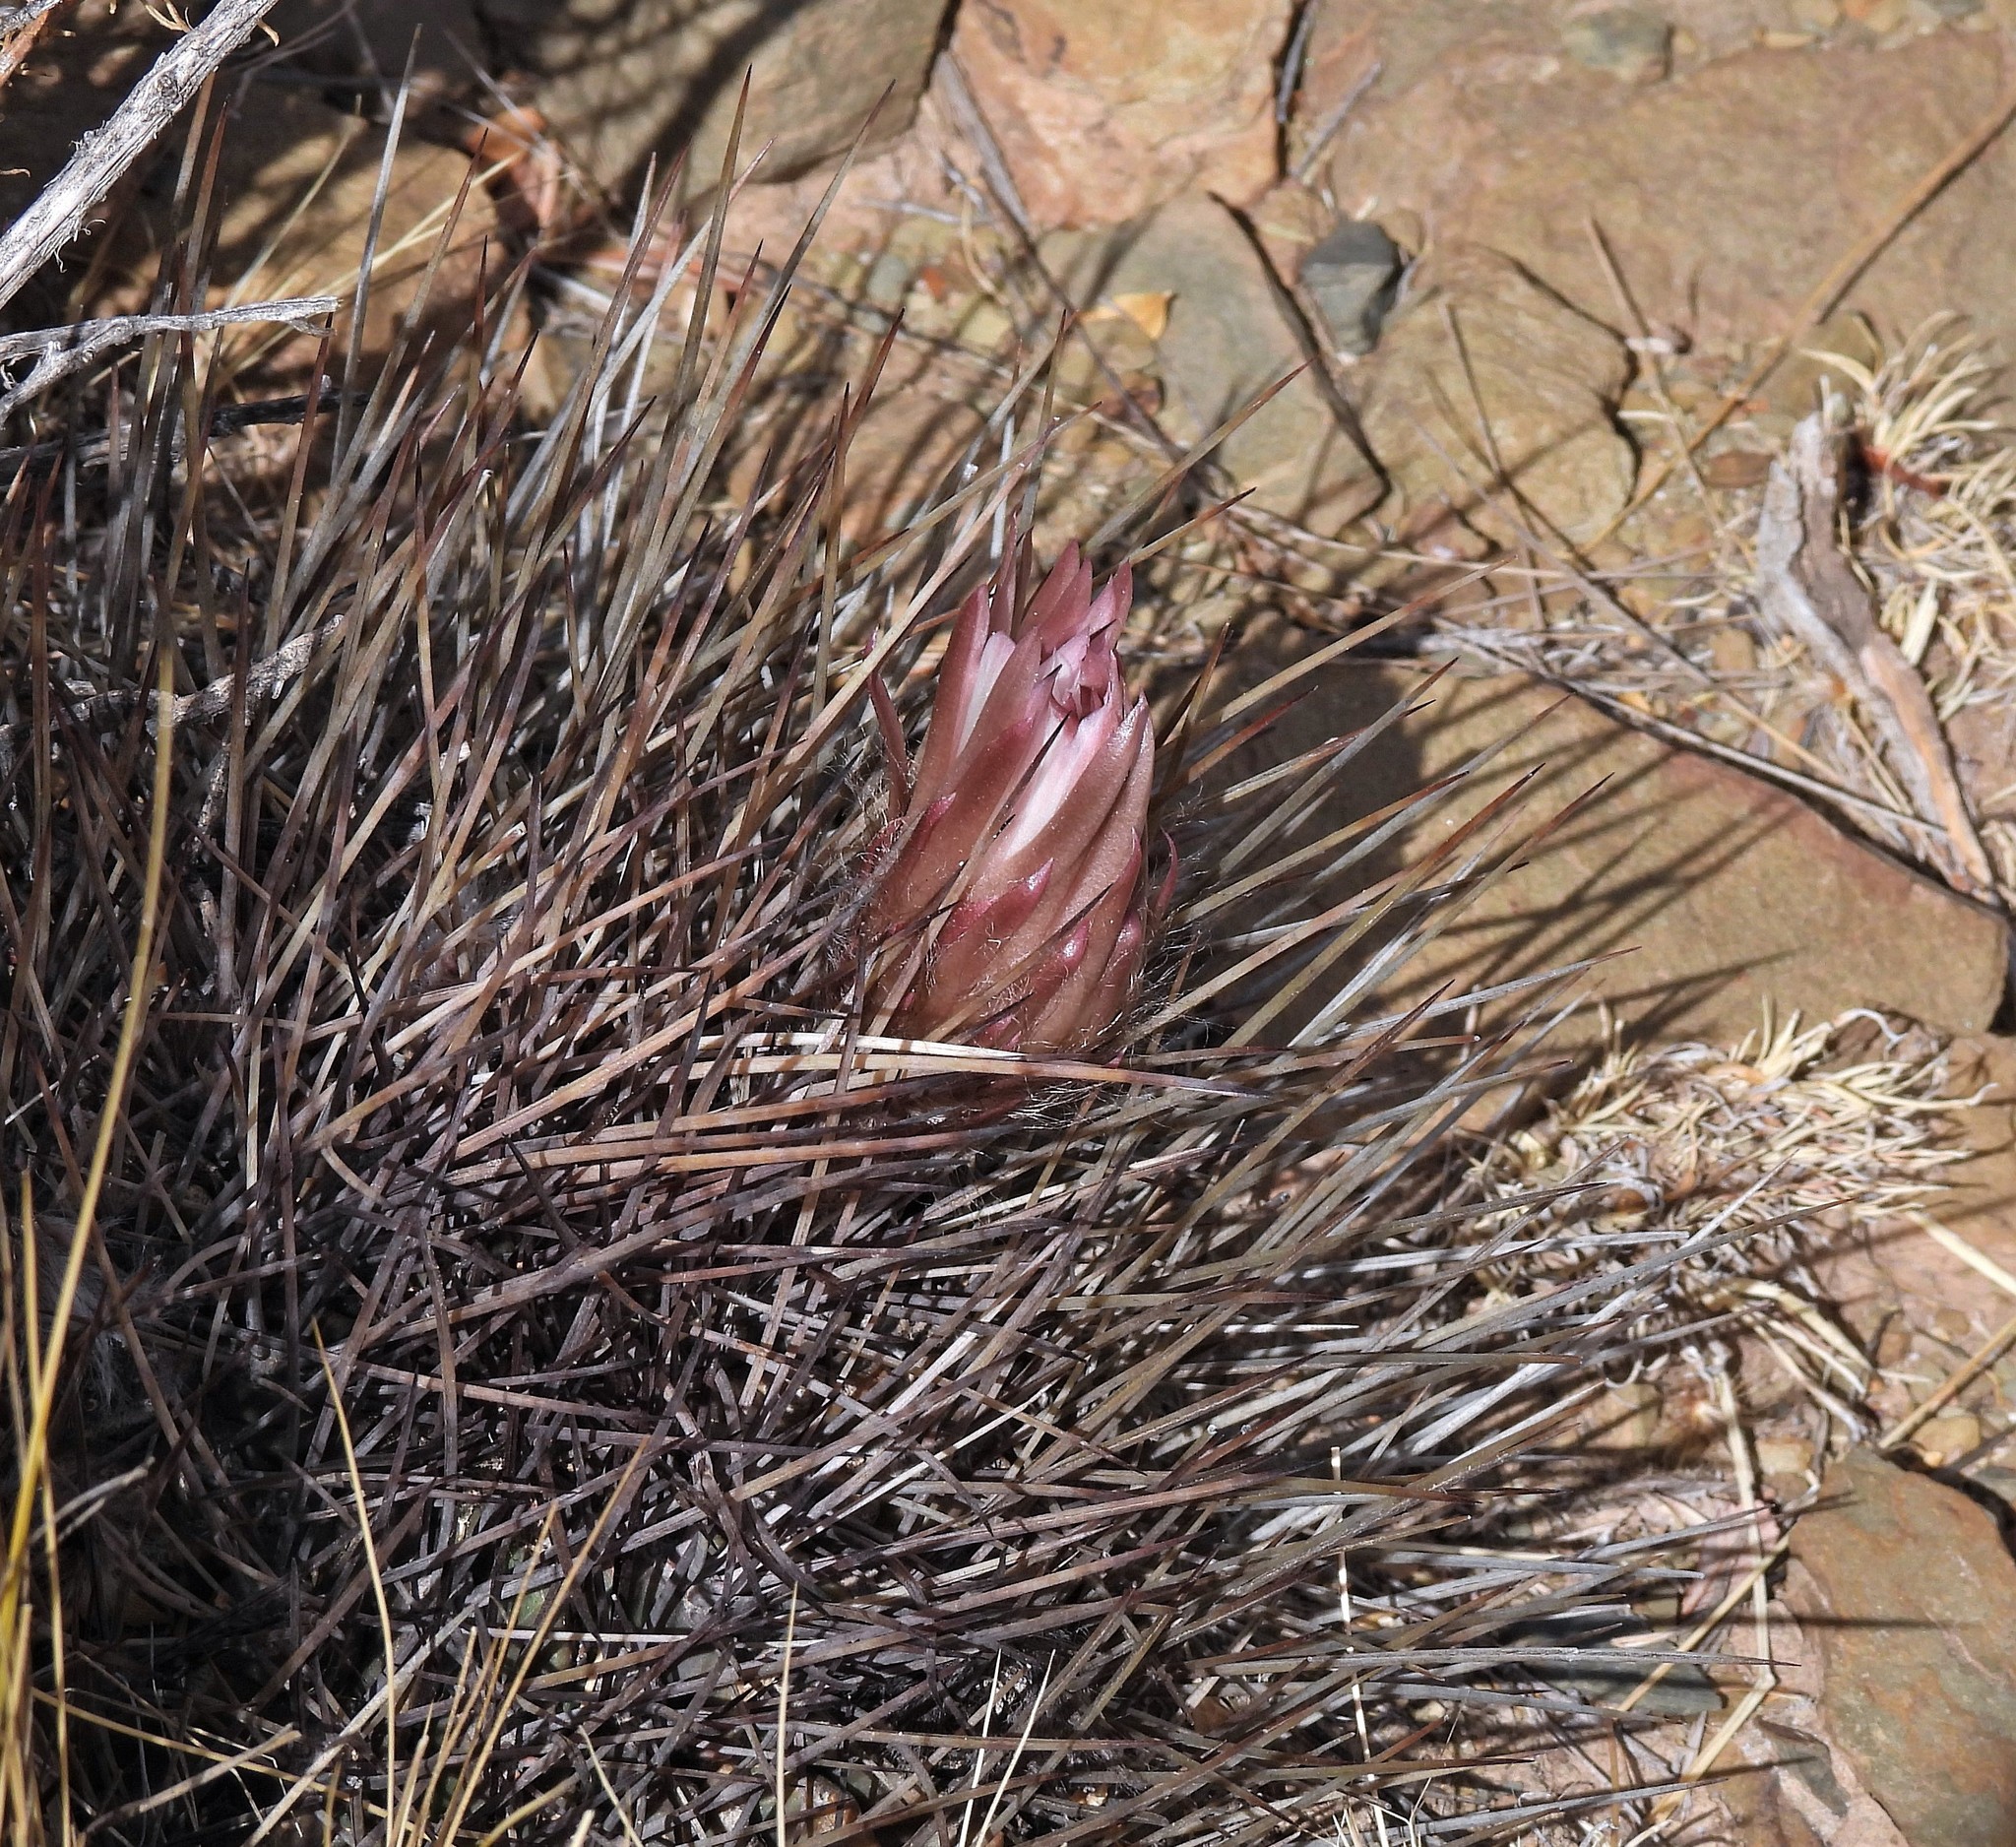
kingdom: Plantae
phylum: Tracheophyta
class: Magnoliopsida
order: Caryophyllales
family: Cactaceae
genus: Lobivia
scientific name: Lobivia ferox
